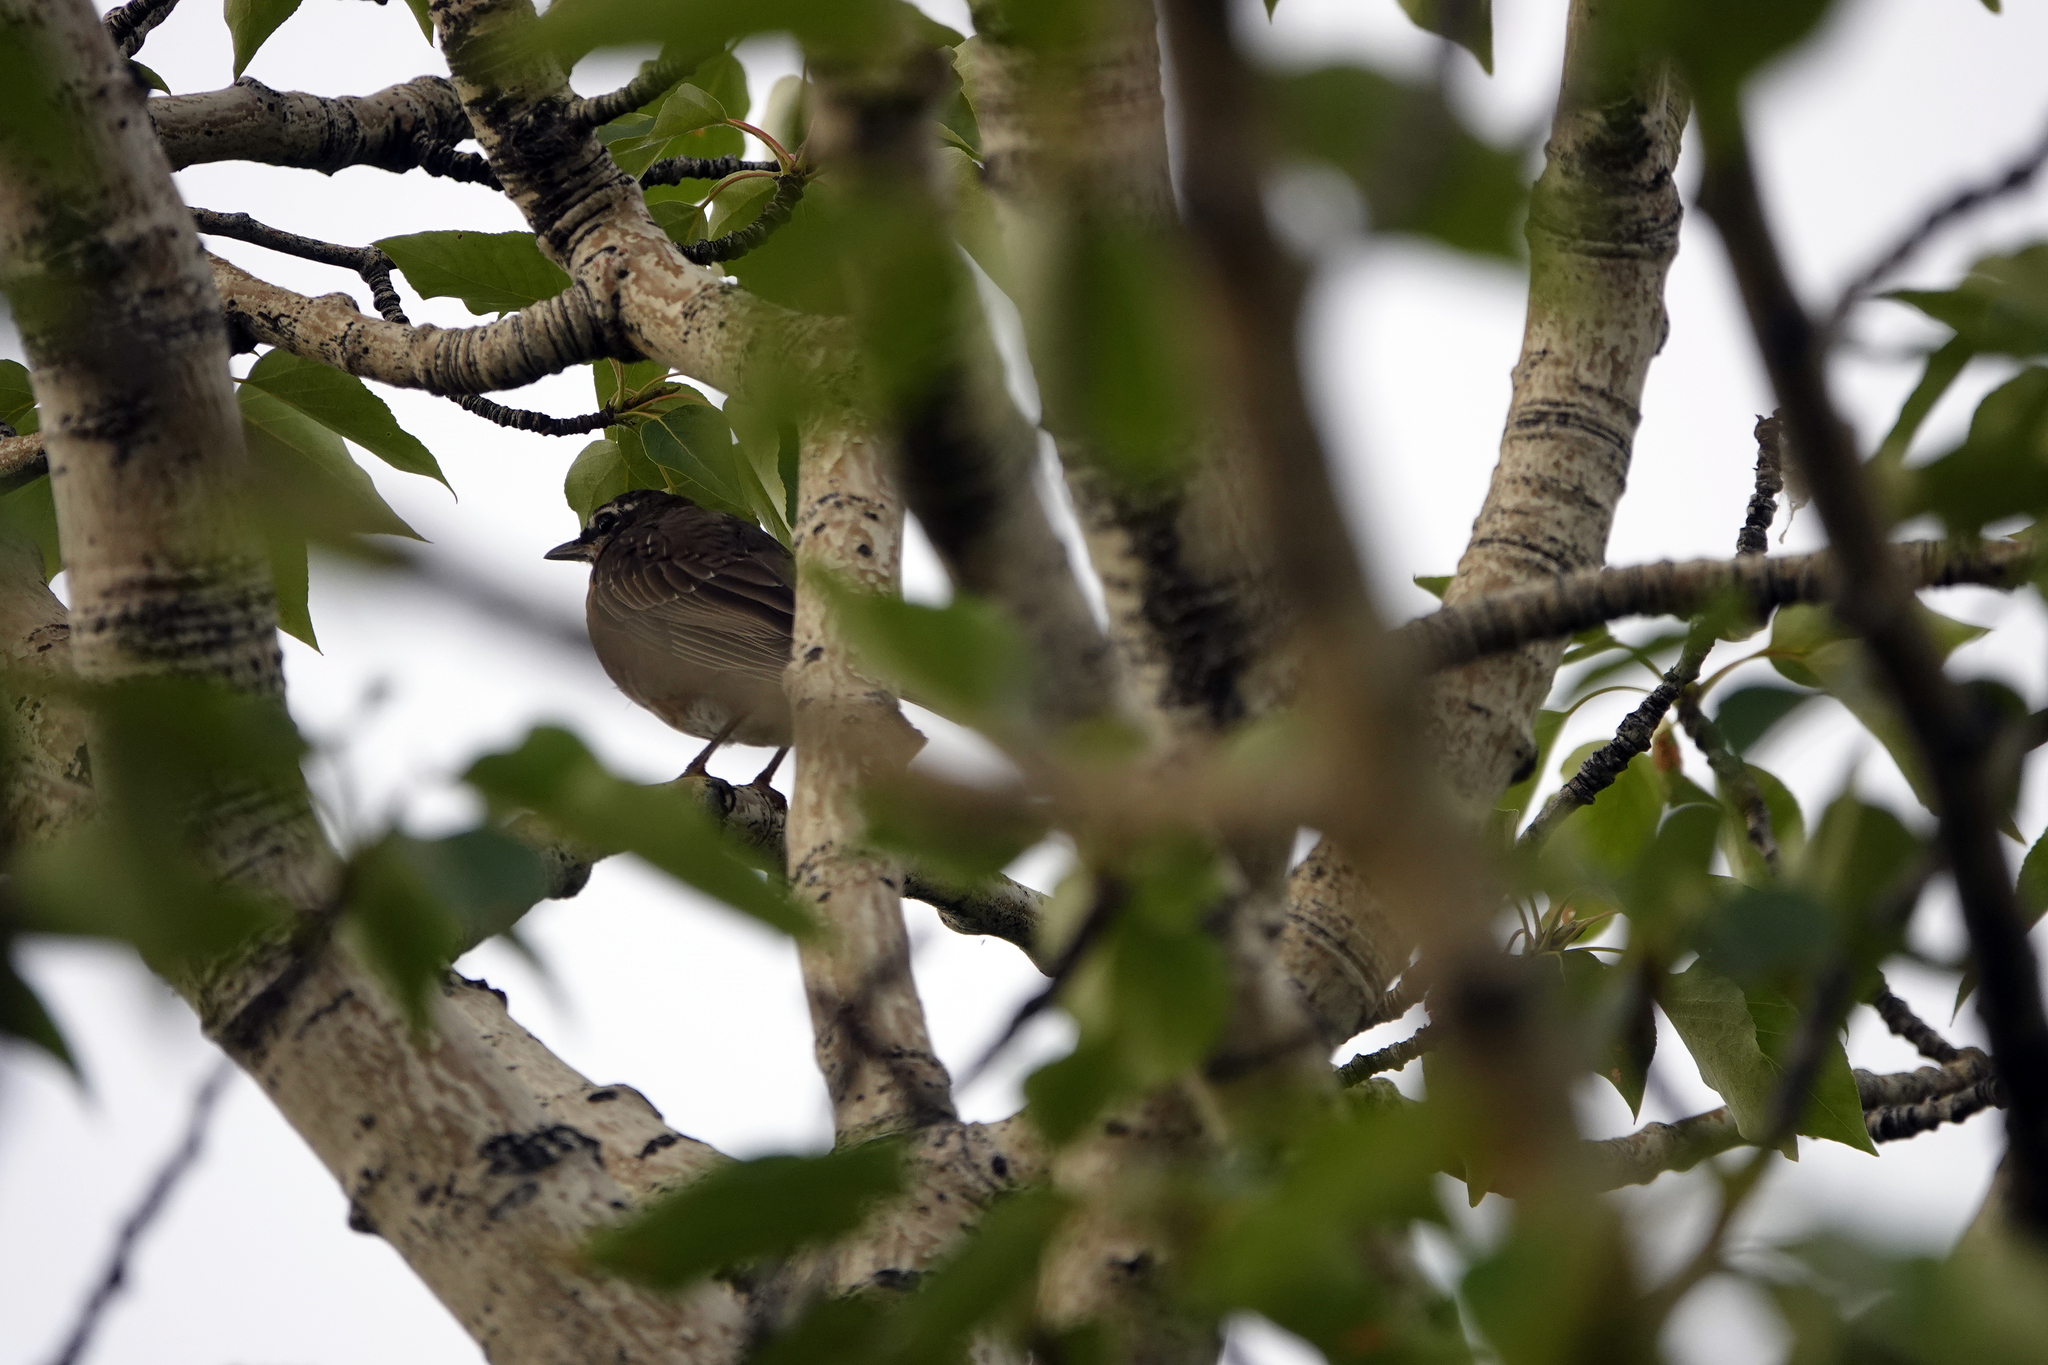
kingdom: Animalia
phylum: Chordata
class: Aves
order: Passeriformes
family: Turdidae
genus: Turdus
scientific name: Turdus migratorius
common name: American robin
